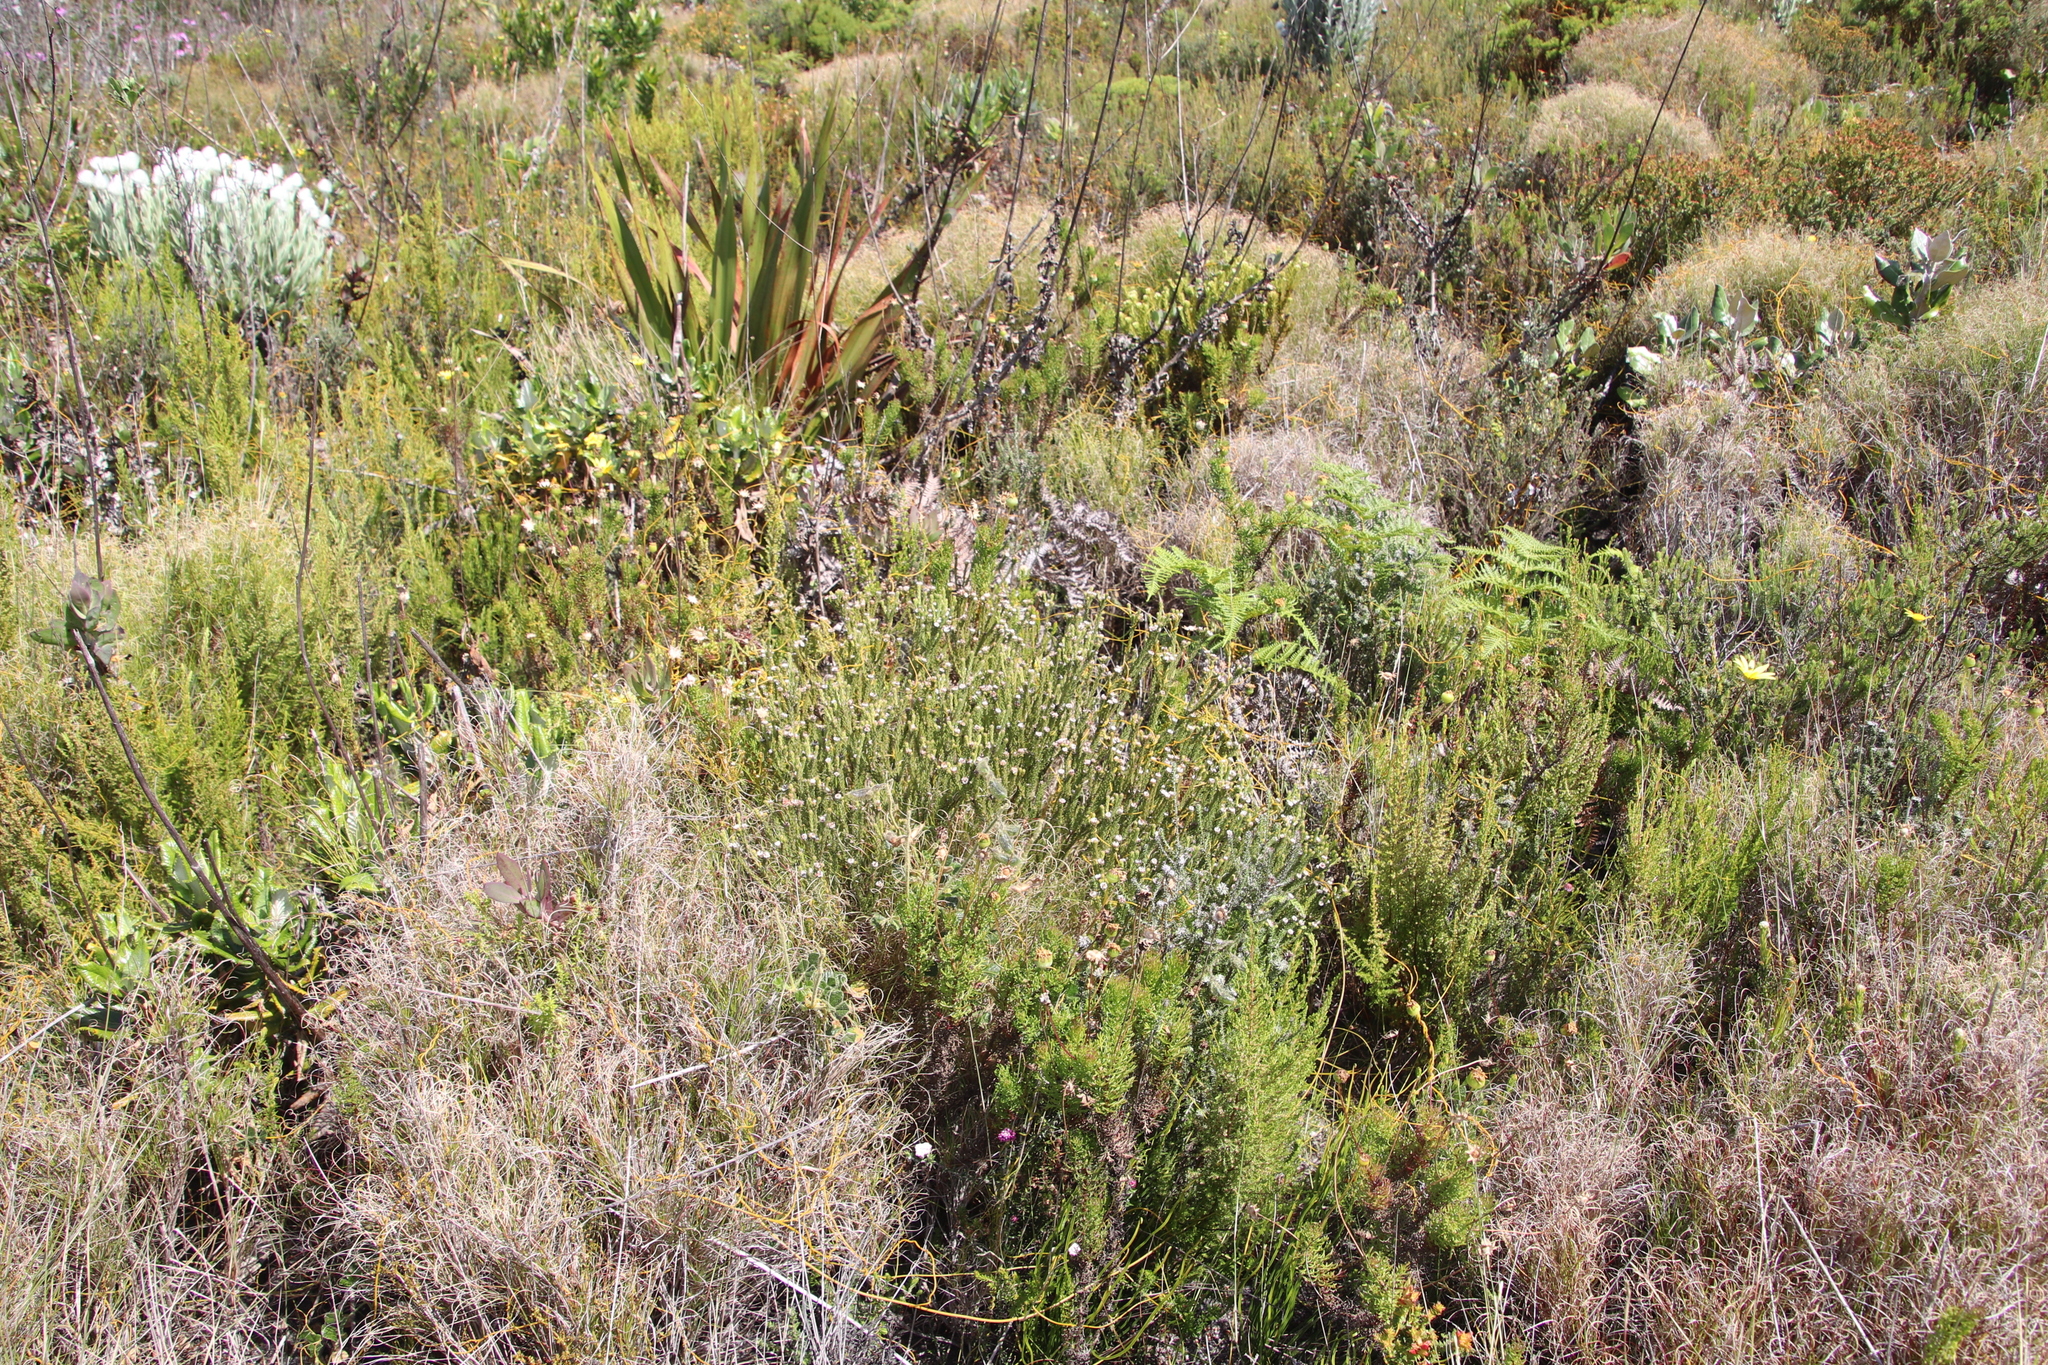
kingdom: Plantae
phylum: Tracheophyta
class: Magnoliopsida
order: Bruniales
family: Bruniaceae
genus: Staavia
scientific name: Staavia radiata
